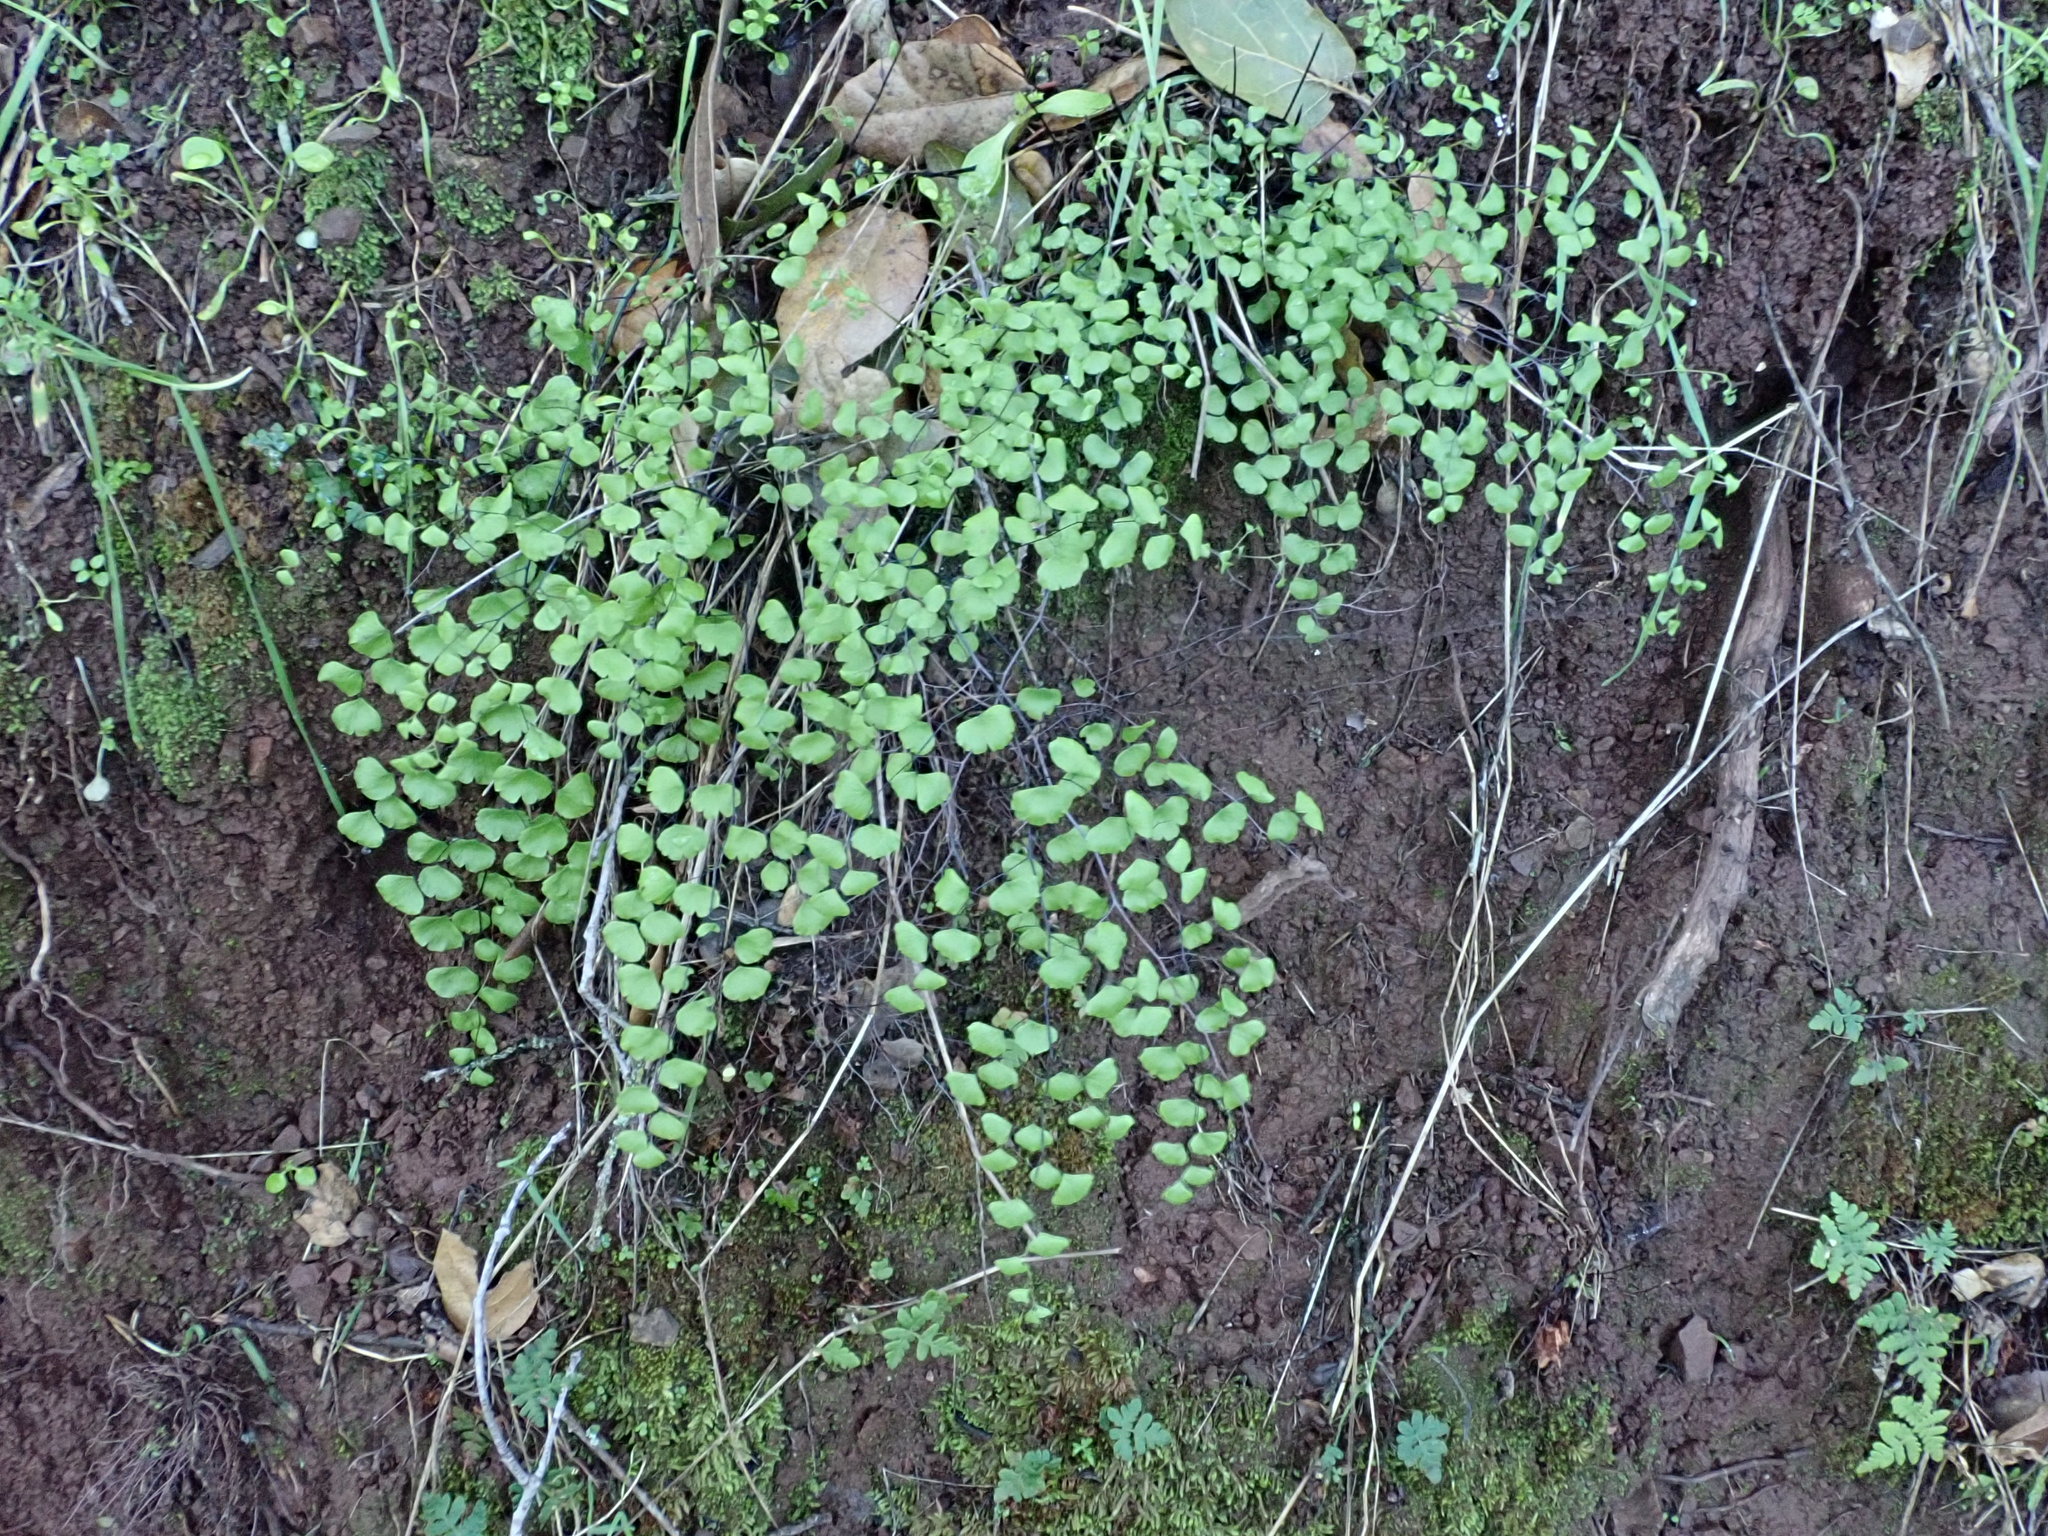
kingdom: Plantae
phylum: Tracheophyta
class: Polypodiopsida
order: Polypodiales
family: Pteridaceae
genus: Adiantum
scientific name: Adiantum jordanii
